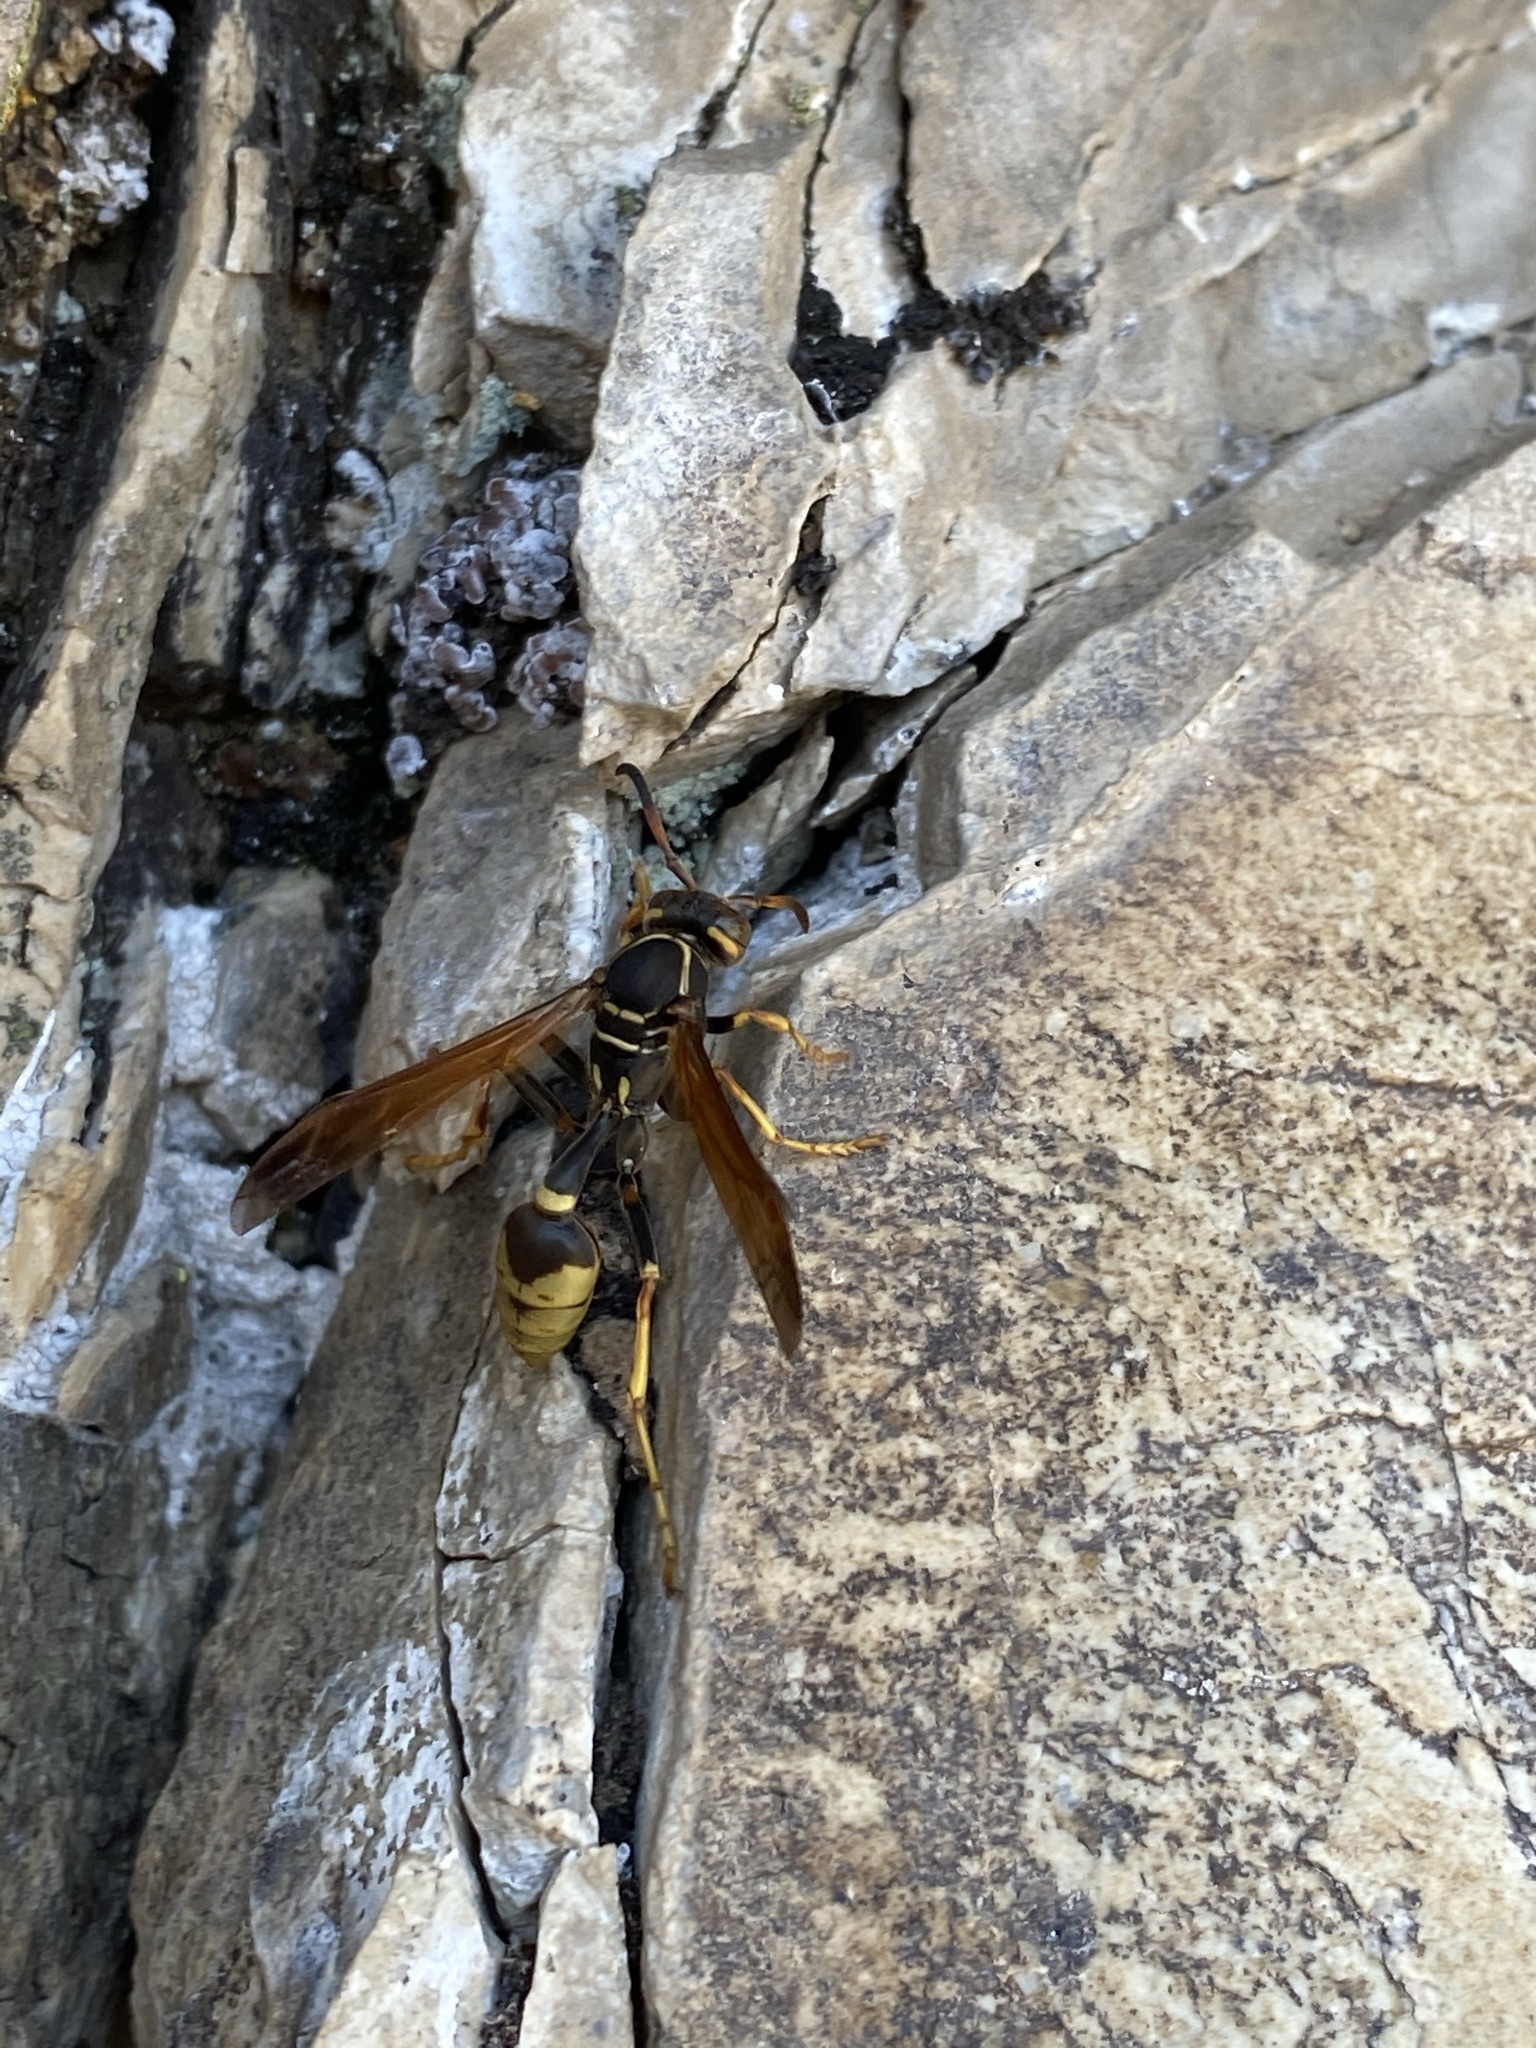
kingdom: Animalia
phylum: Arthropoda
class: Insecta
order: Hymenoptera
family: Vespidae
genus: Mischocyttarus
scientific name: Mischocyttarus flavitarsis
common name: Wasp
